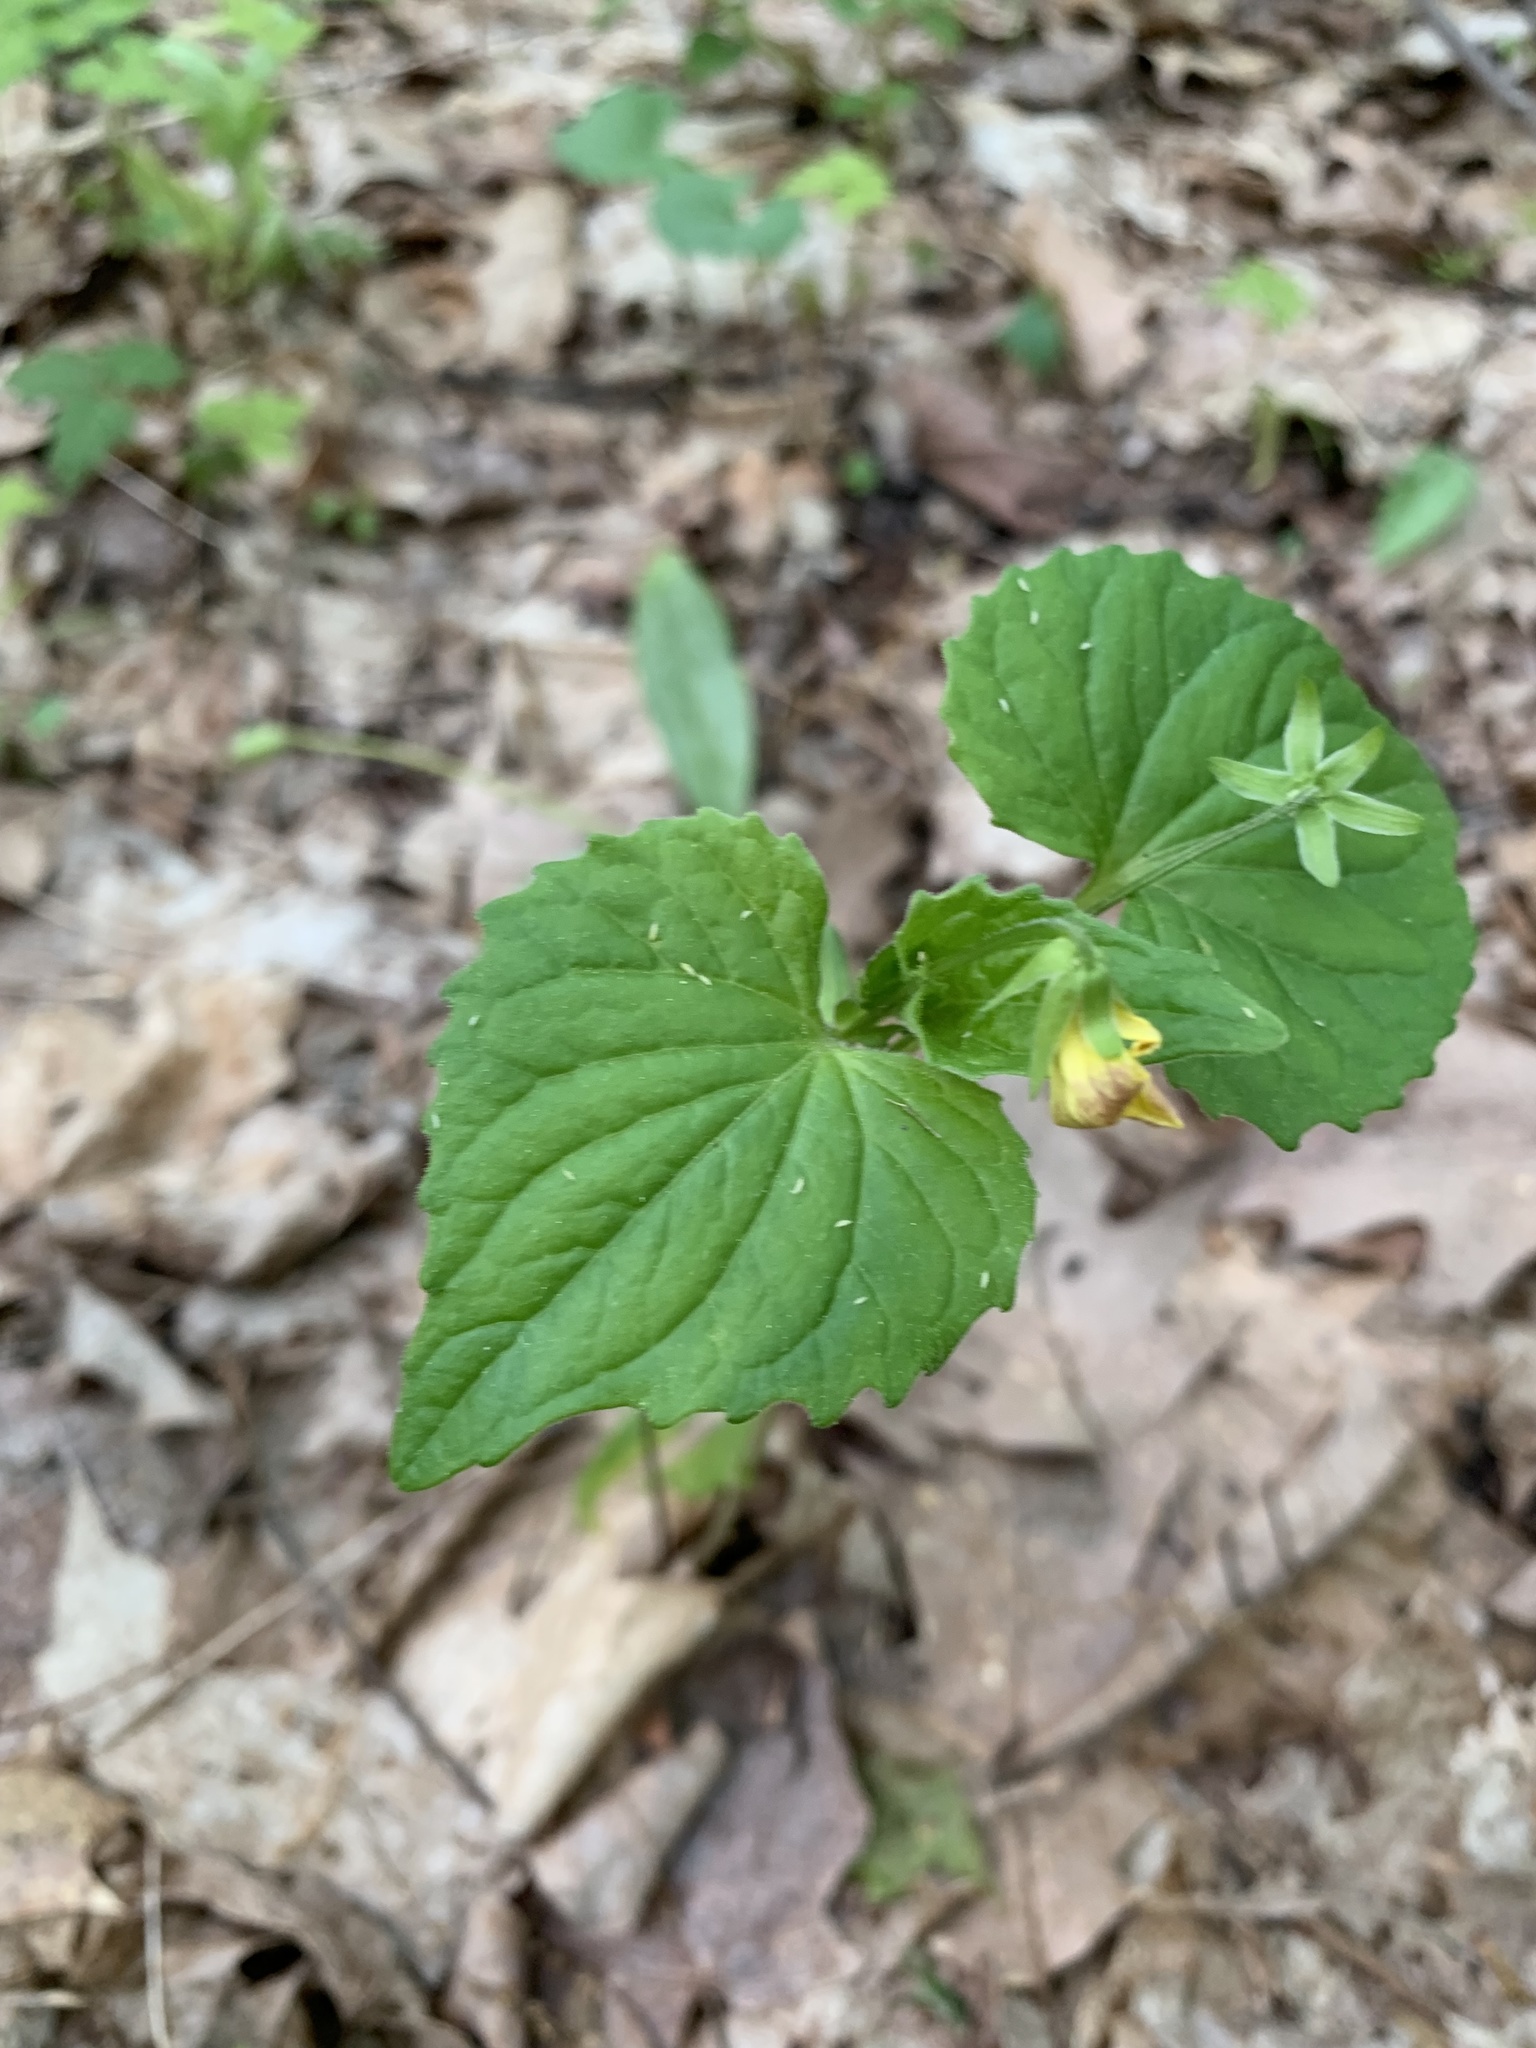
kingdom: Plantae
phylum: Tracheophyta
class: Magnoliopsida
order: Malpighiales
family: Violaceae
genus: Viola
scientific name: Viola eriocarpa
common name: Smooth yellow violet
